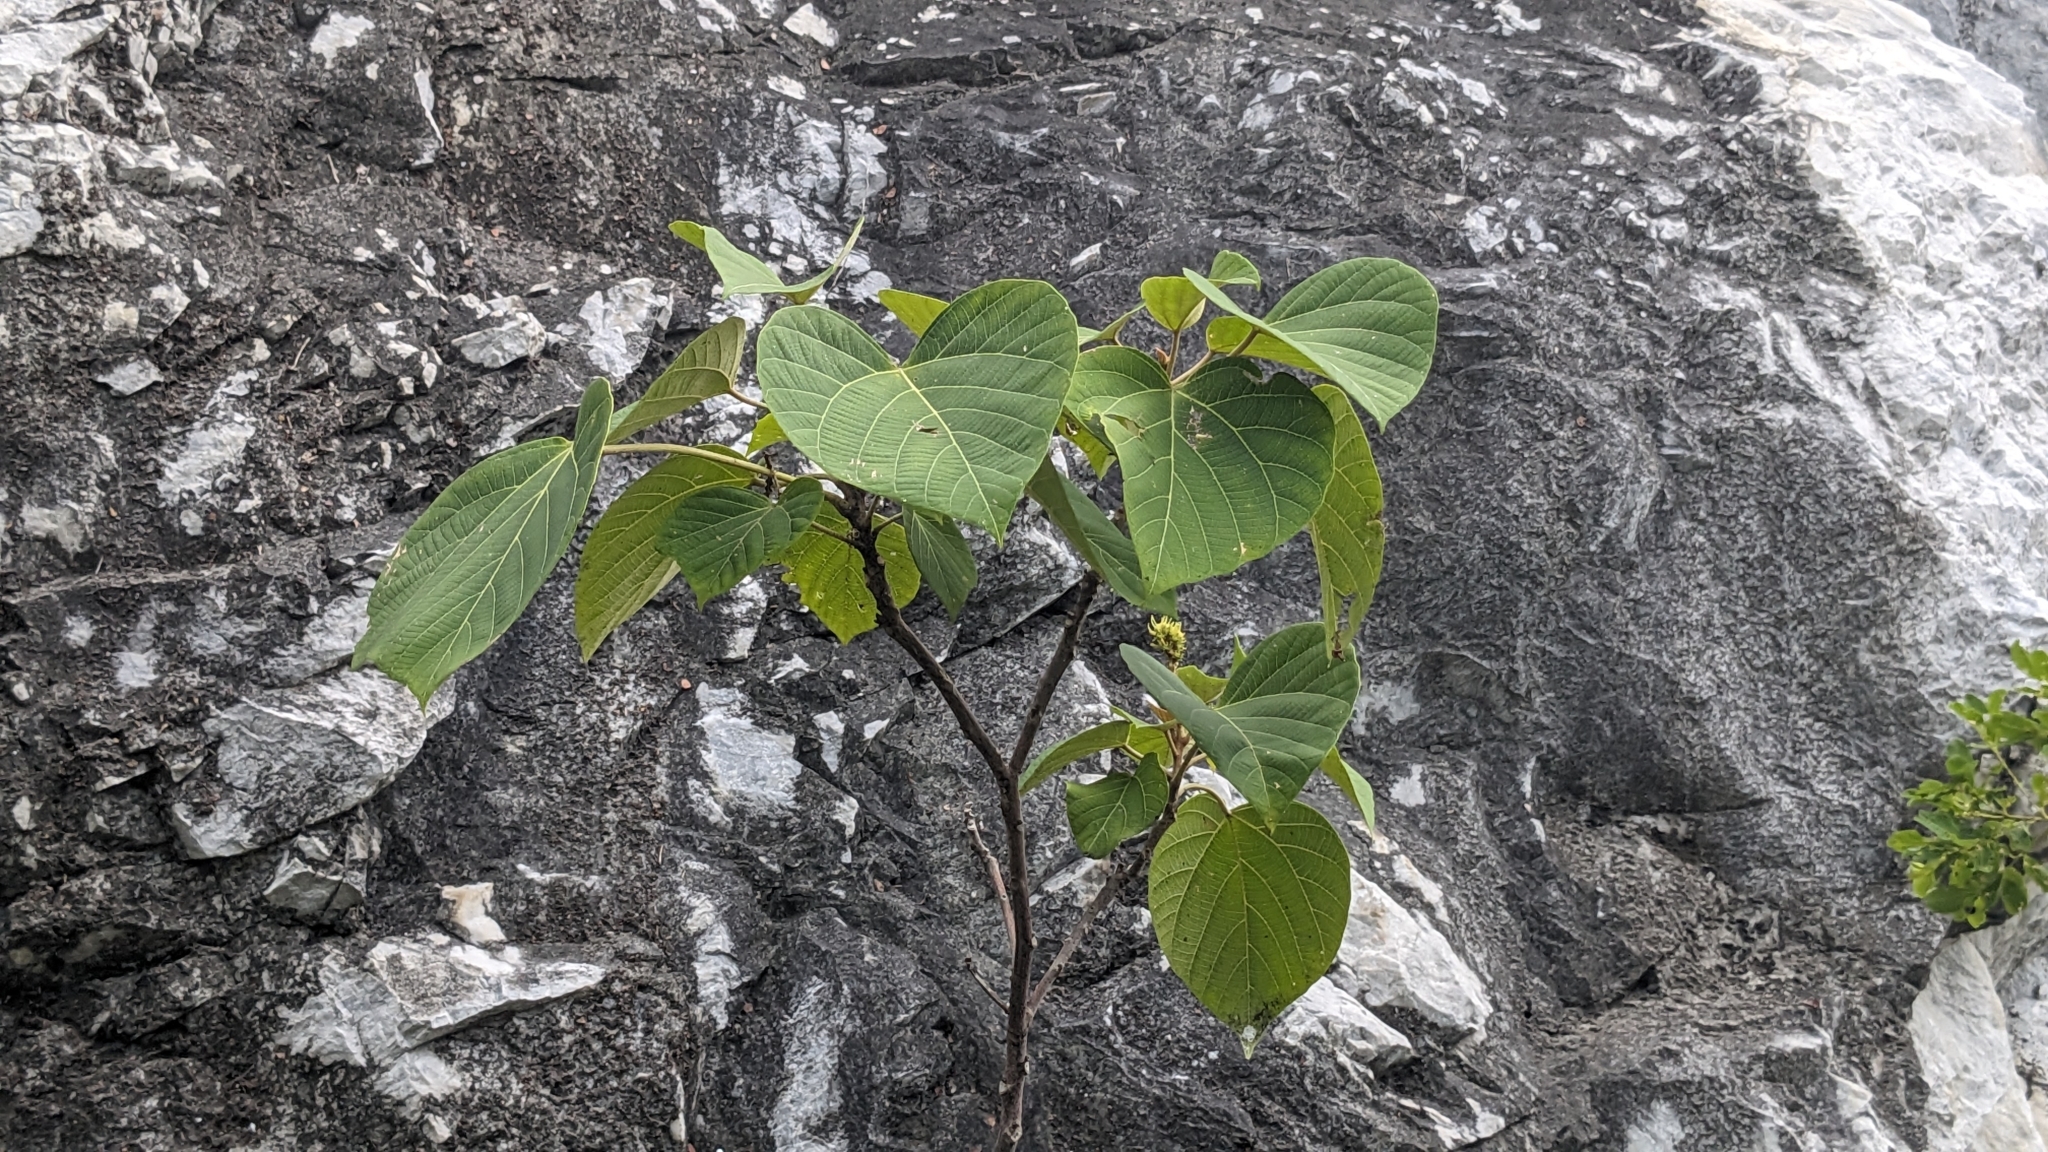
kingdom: Plantae
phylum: Tracheophyta
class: Magnoliopsida
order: Malpighiales
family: Euphorbiaceae
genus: Mallotus
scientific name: Mallotus japonicus
